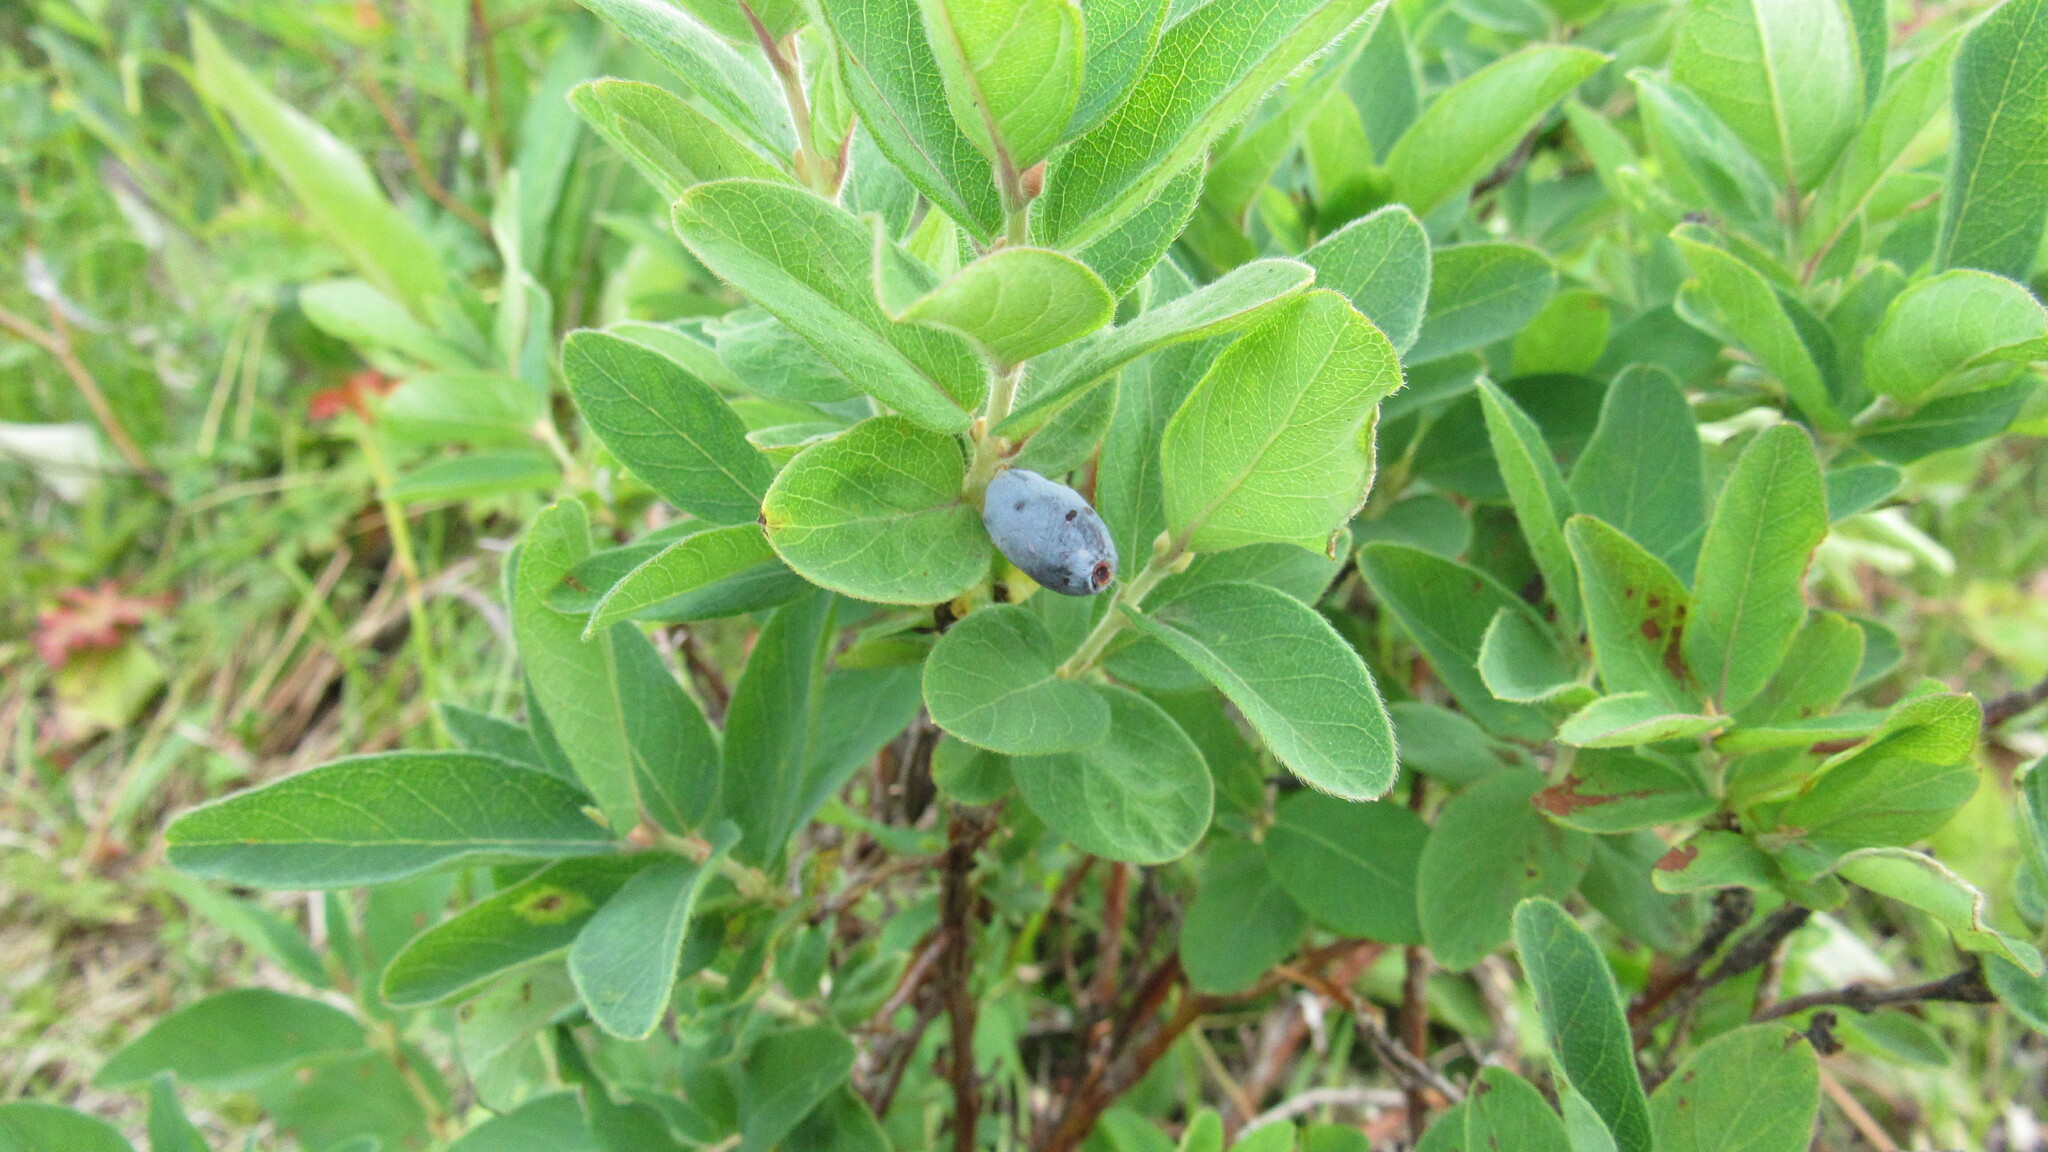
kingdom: Plantae
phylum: Tracheophyta
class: Magnoliopsida
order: Dipsacales
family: Caprifoliaceae
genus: Lonicera
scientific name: Lonicera caerulea
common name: Blue honeysuckle
